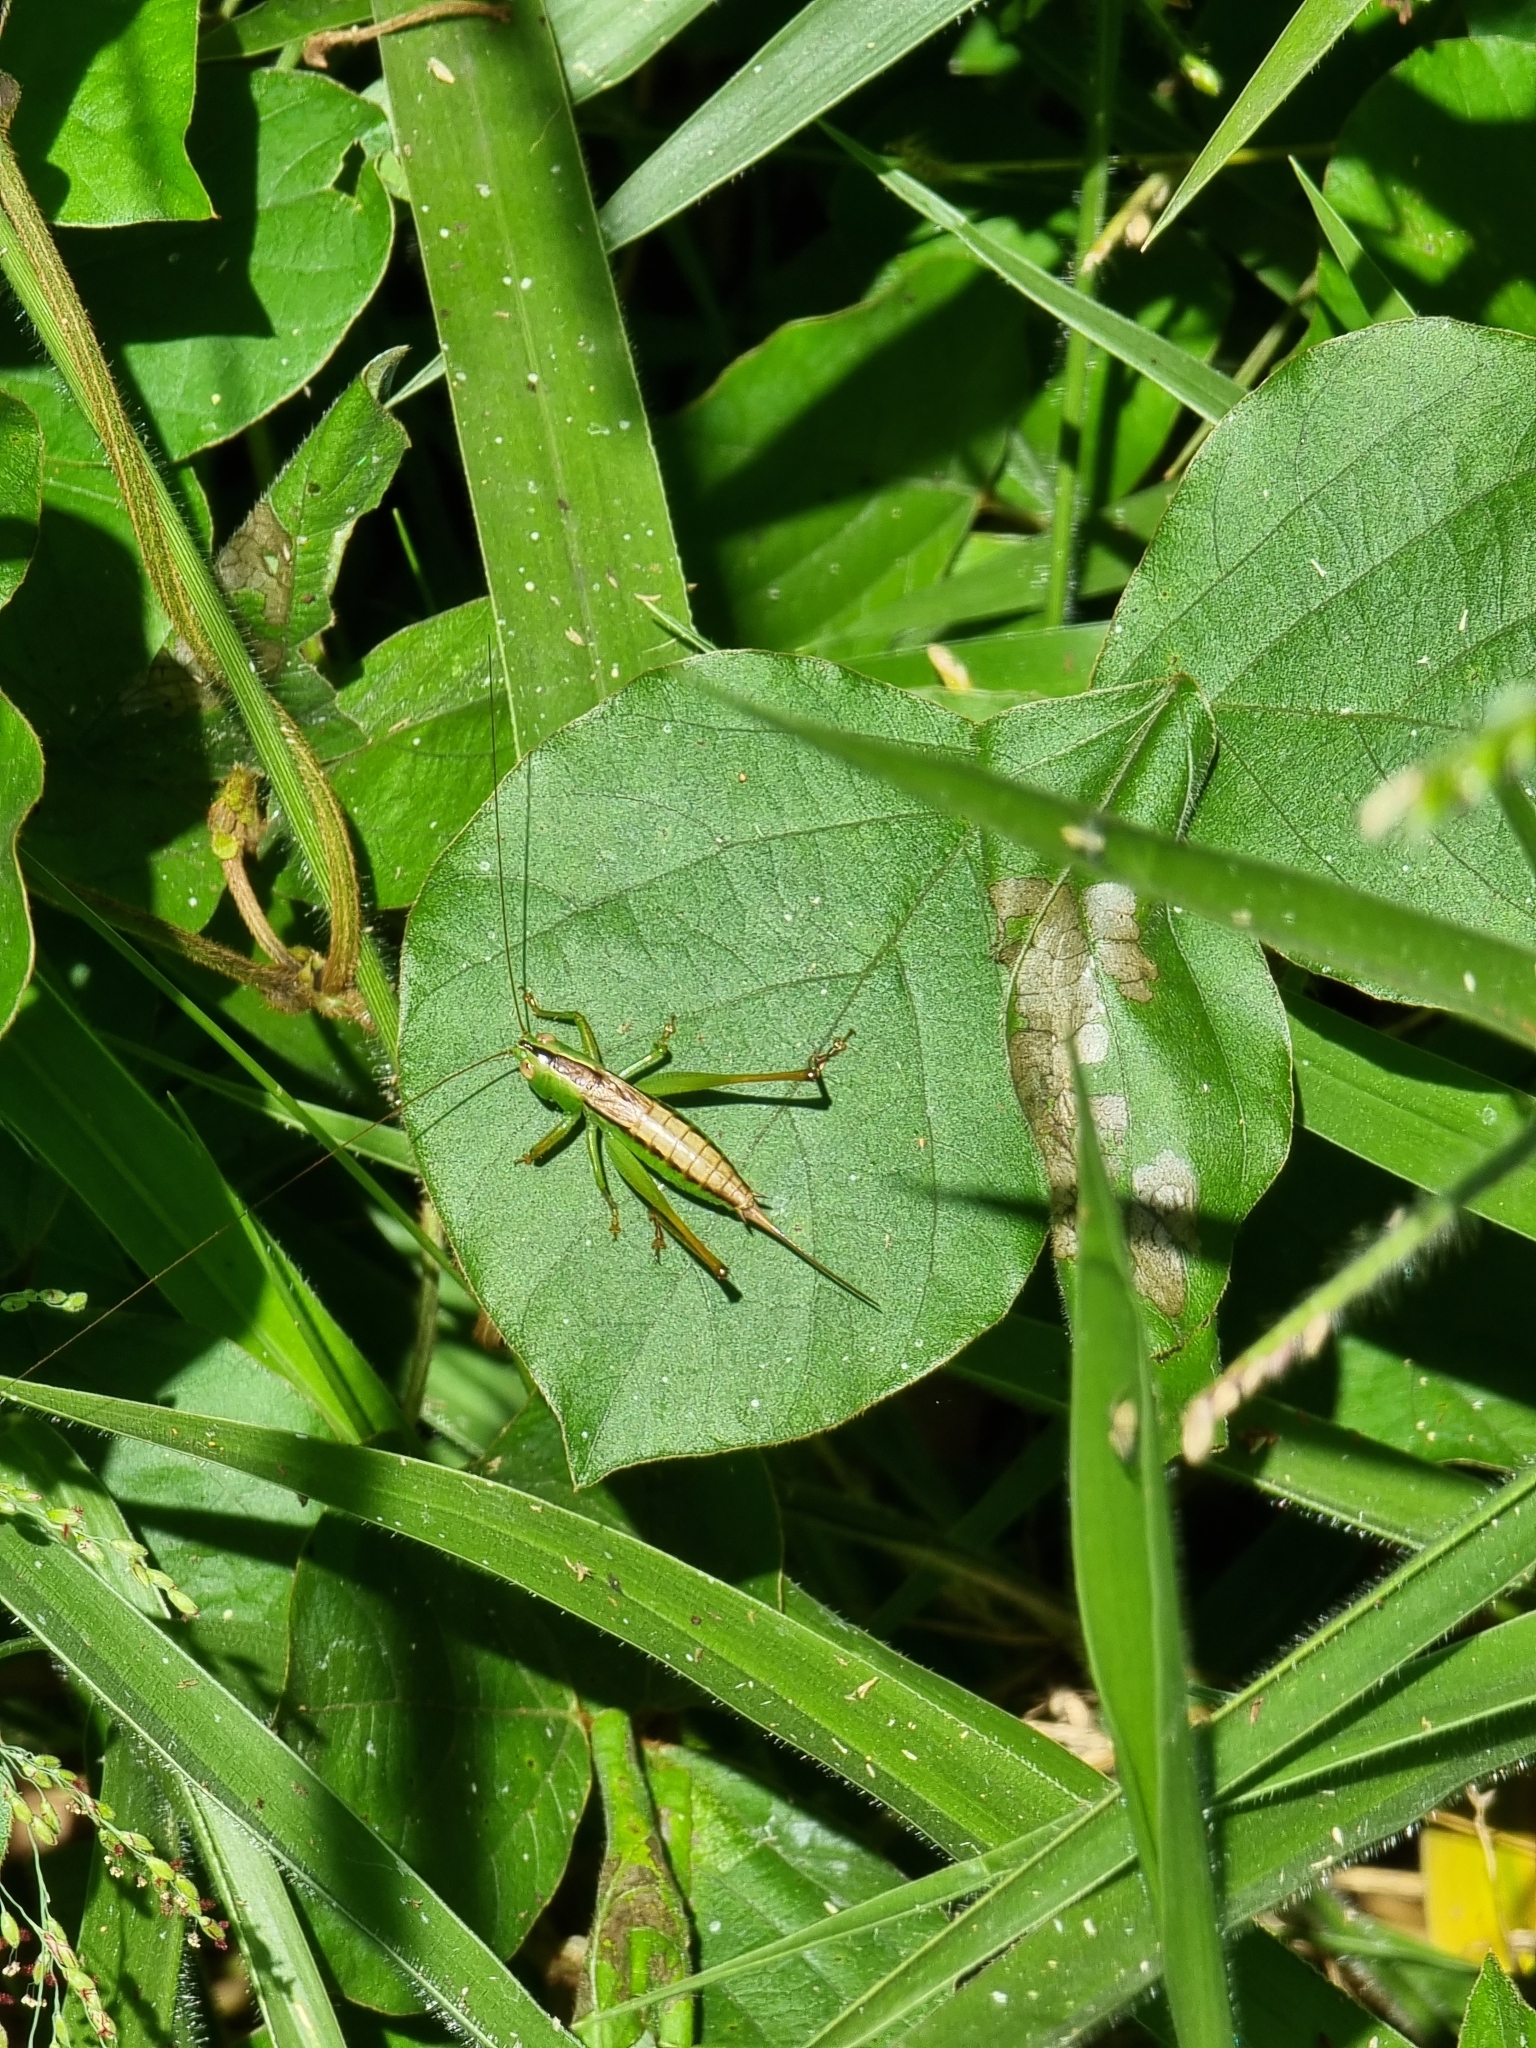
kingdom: Animalia
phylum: Arthropoda
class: Insecta
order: Orthoptera
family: Tettigoniidae
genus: Conocephalus
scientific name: Conocephalus semivittatus
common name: Blackish meadow katydid
